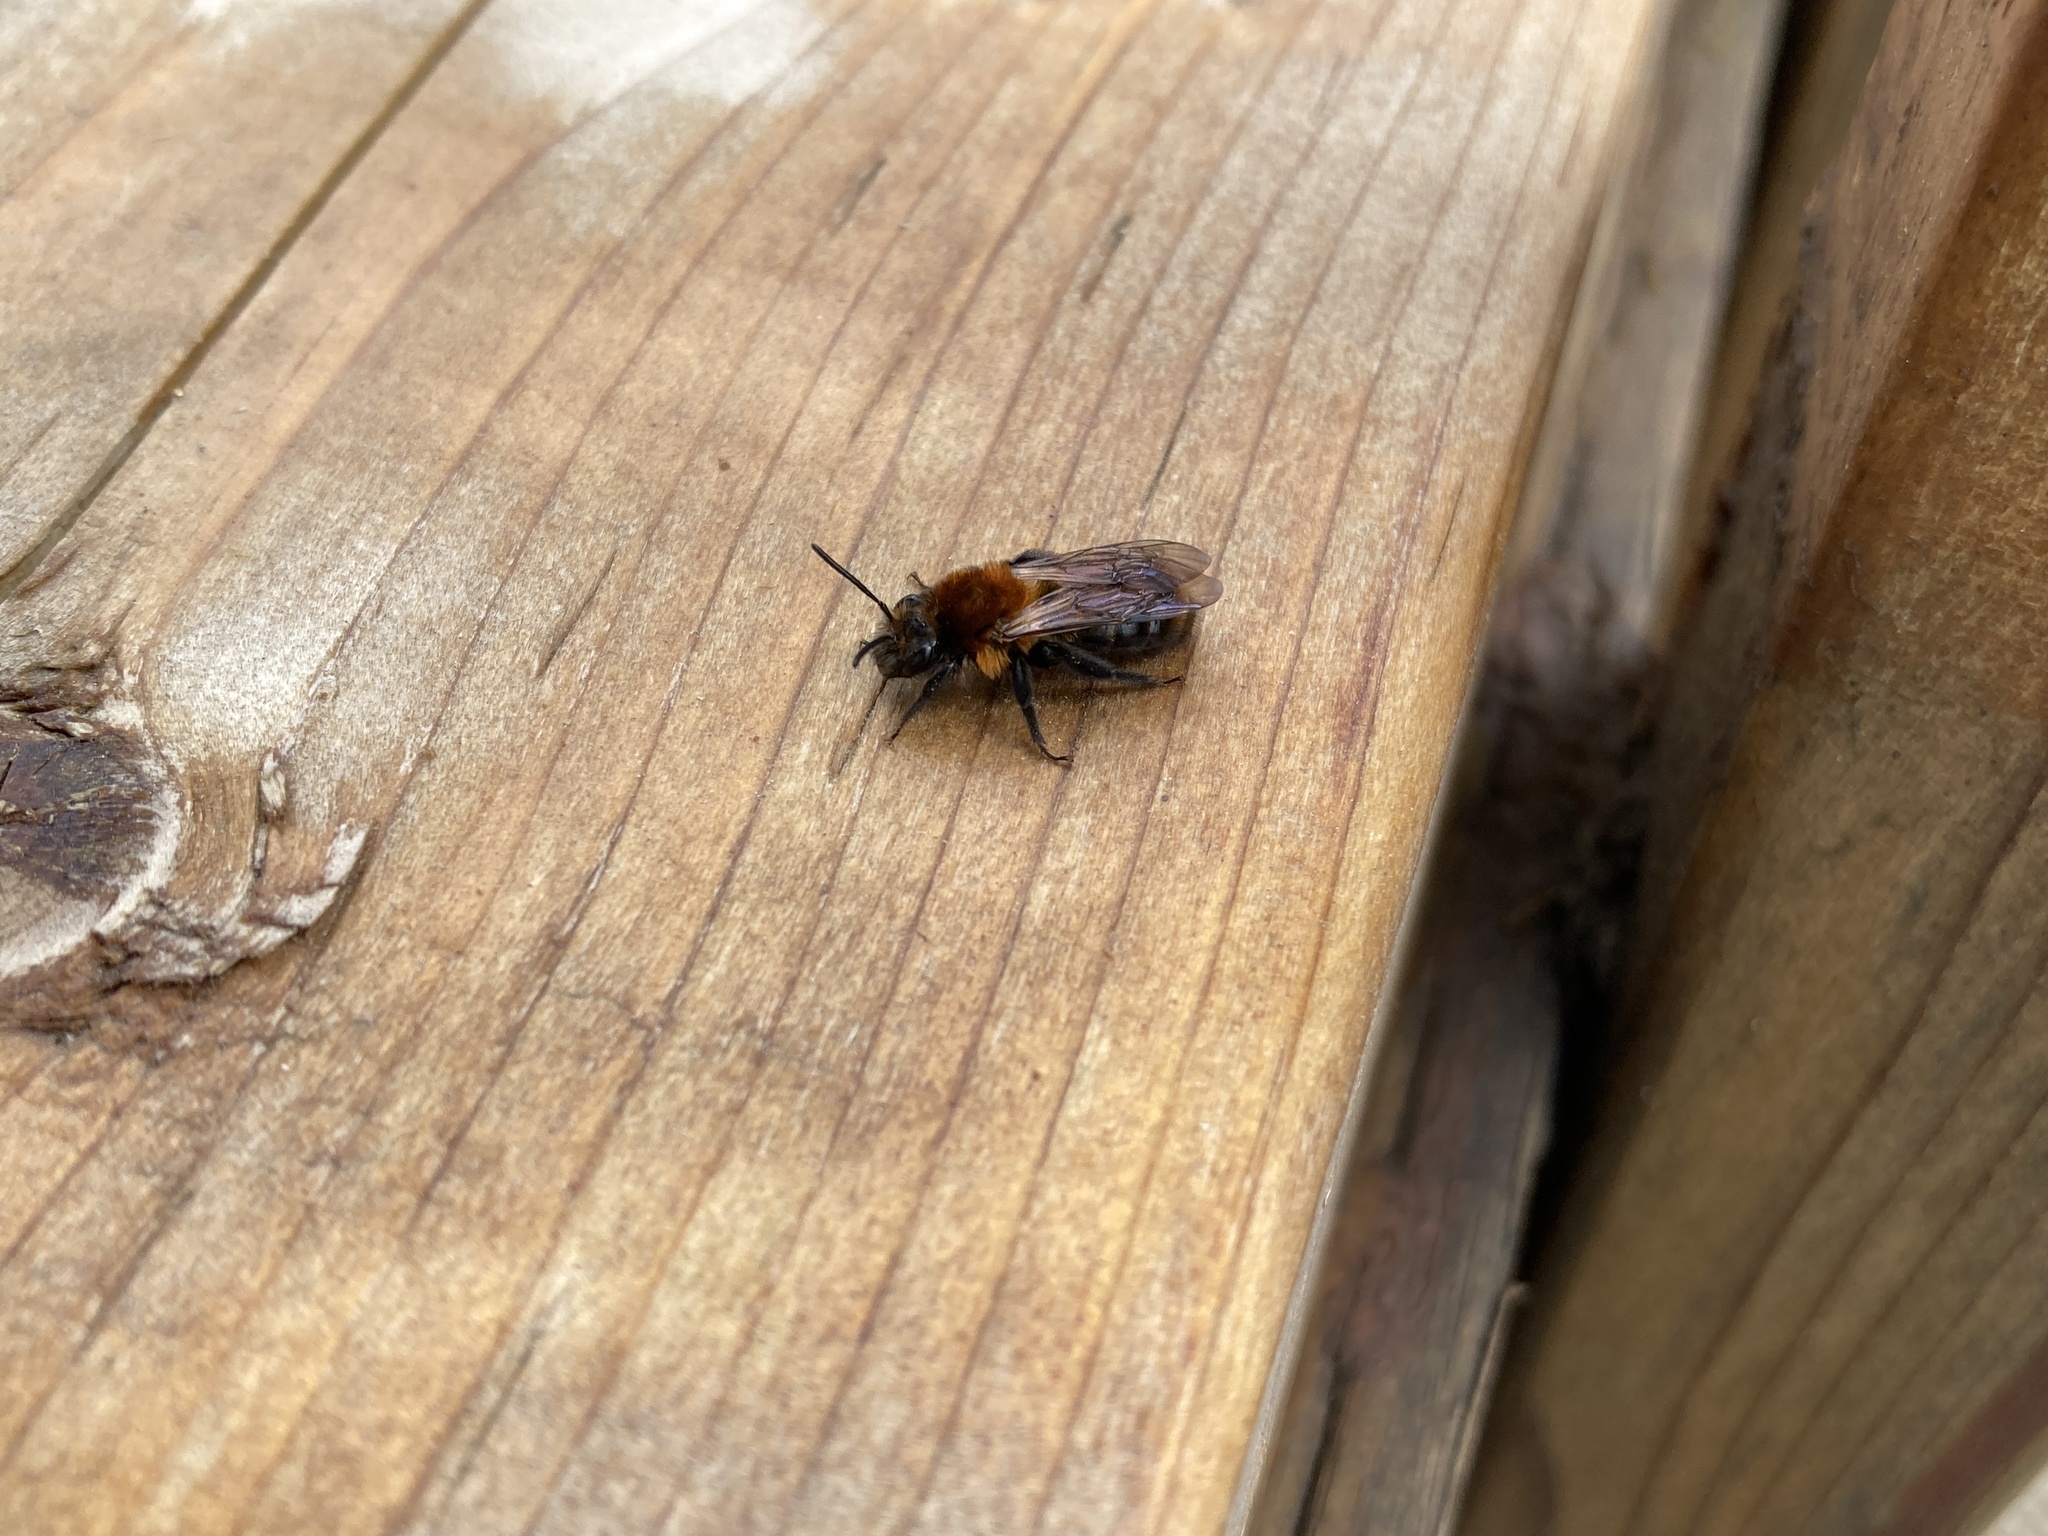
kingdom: Animalia
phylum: Arthropoda
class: Insecta
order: Hymenoptera
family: Andrenidae
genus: Andrena
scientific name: Andrena milwaukeensis
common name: Milwaukee mining bee
